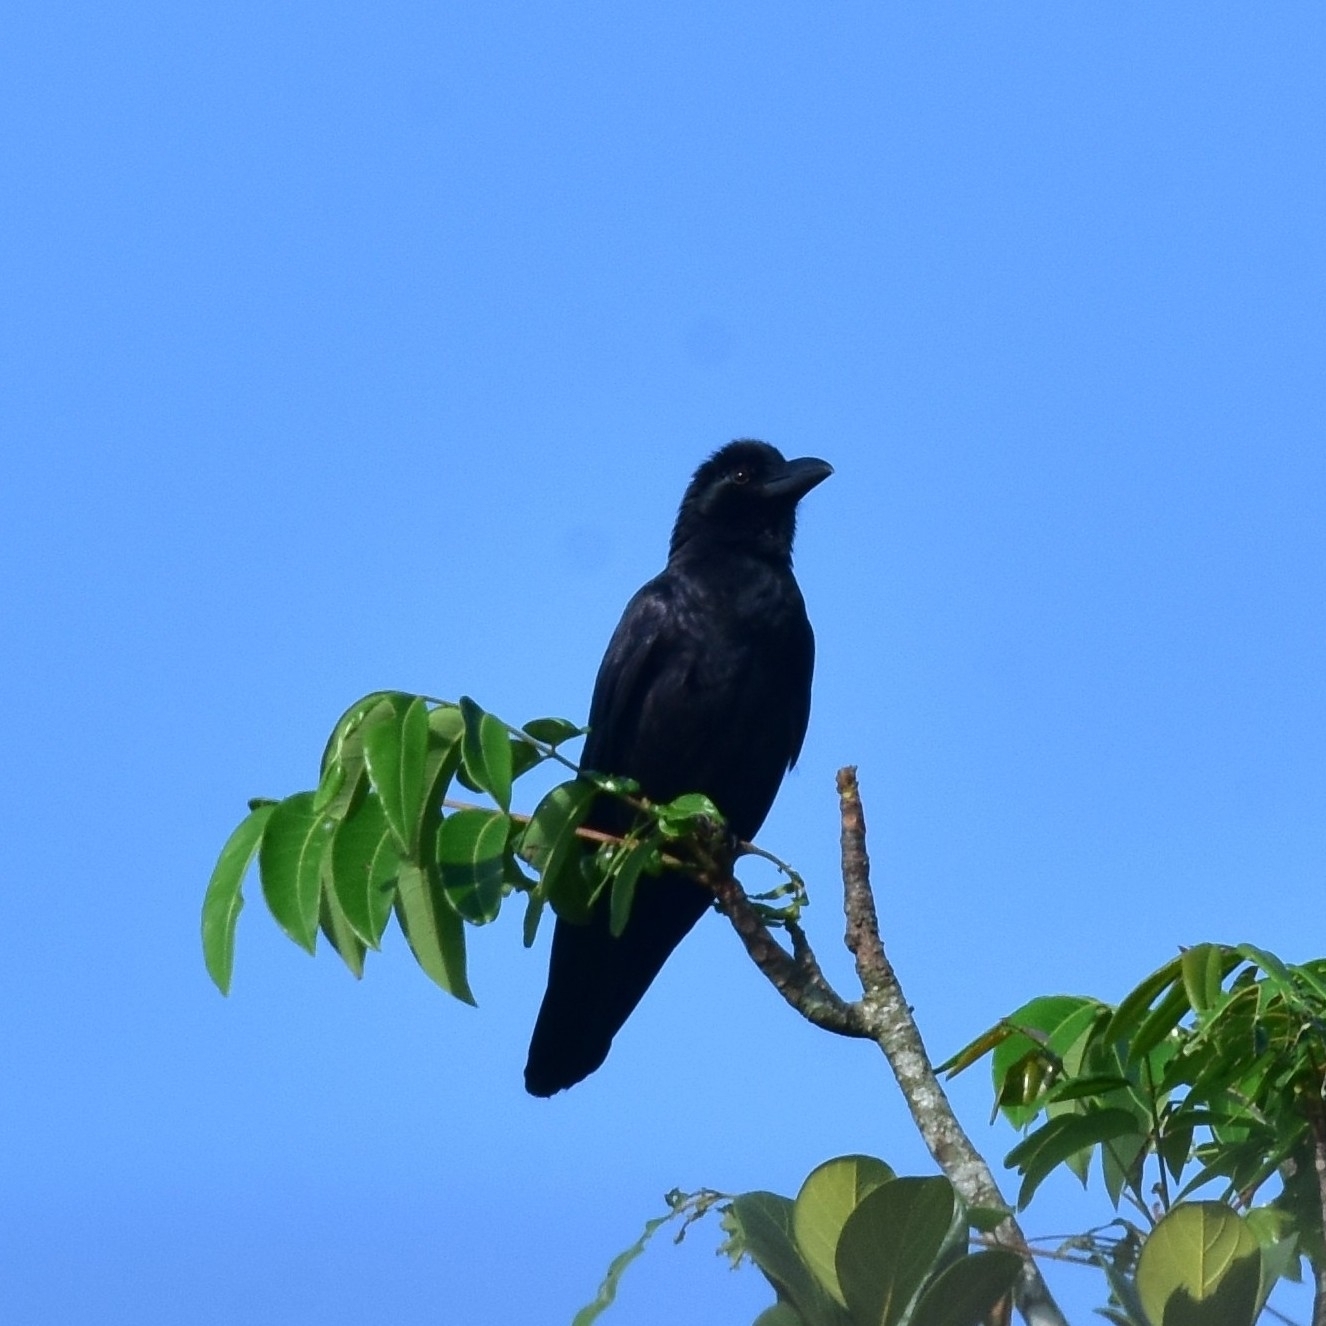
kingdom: Animalia
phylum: Chordata
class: Aves
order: Passeriformes
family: Corvidae
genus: Corvus
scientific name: Corvus macrorhynchos
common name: Large-billed crow
